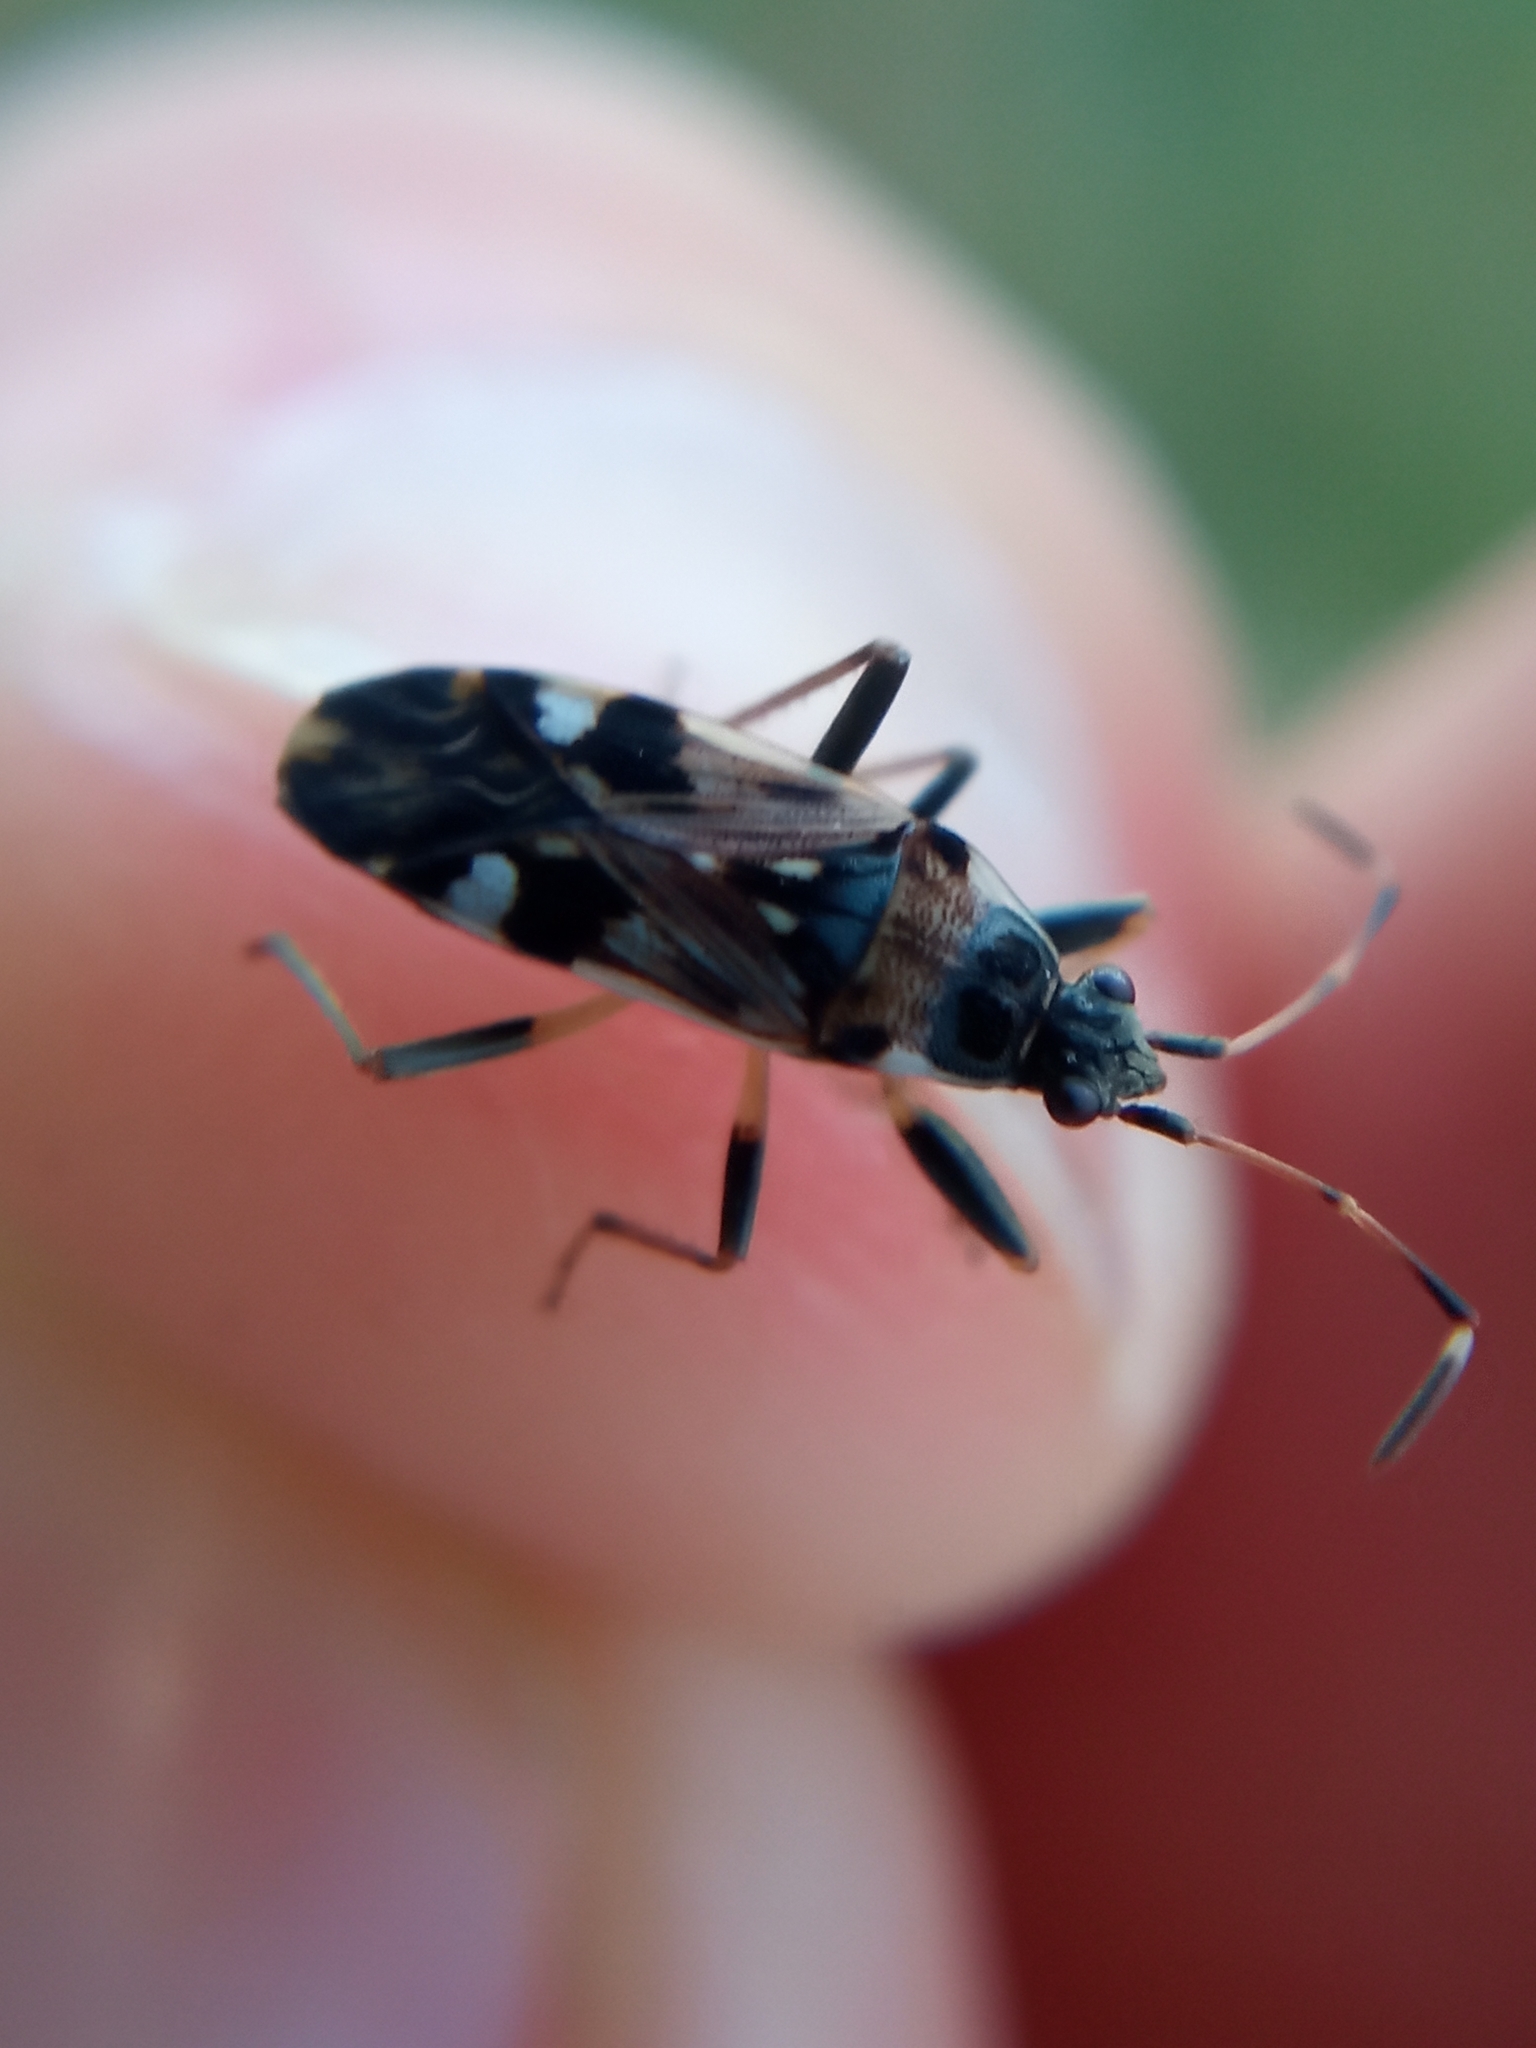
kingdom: Animalia
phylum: Arthropoda
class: Insecta
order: Hemiptera
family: Rhyparochromidae
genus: Beosus
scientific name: Beosus maritimus
